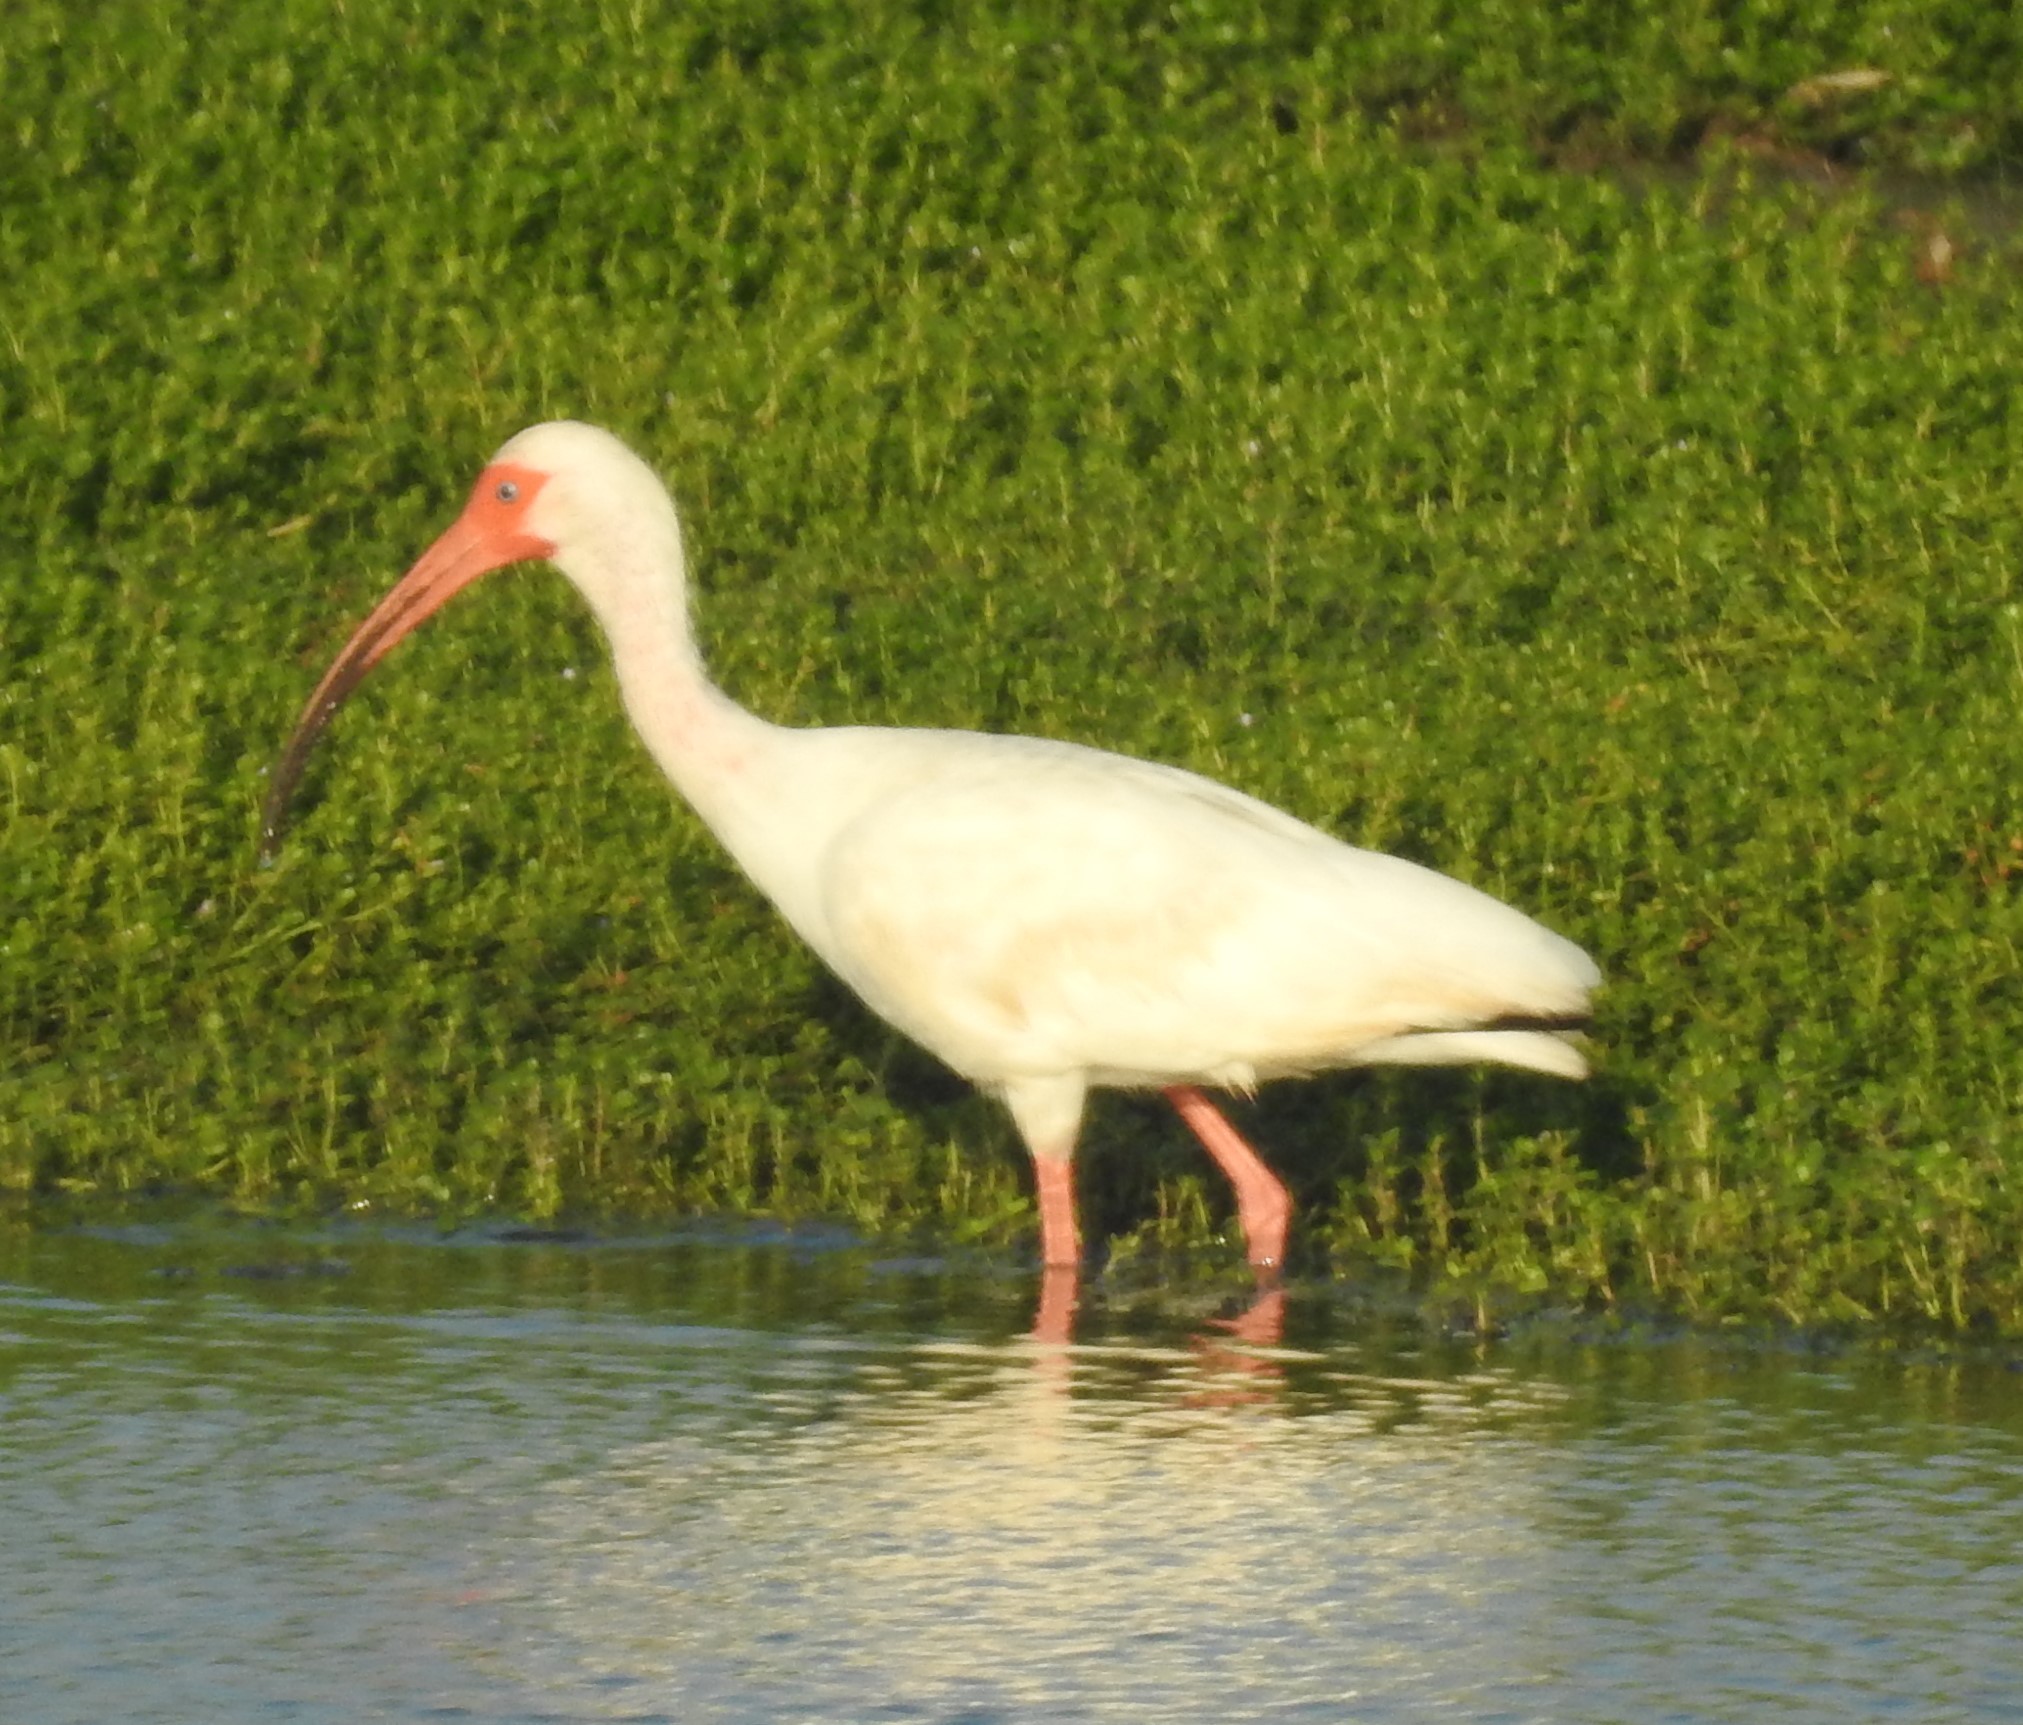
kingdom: Animalia
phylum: Chordata
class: Aves
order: Pelecaniformes
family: Threskiornithidae
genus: Eudocimus
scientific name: Eudocimus albus
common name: White ibis
